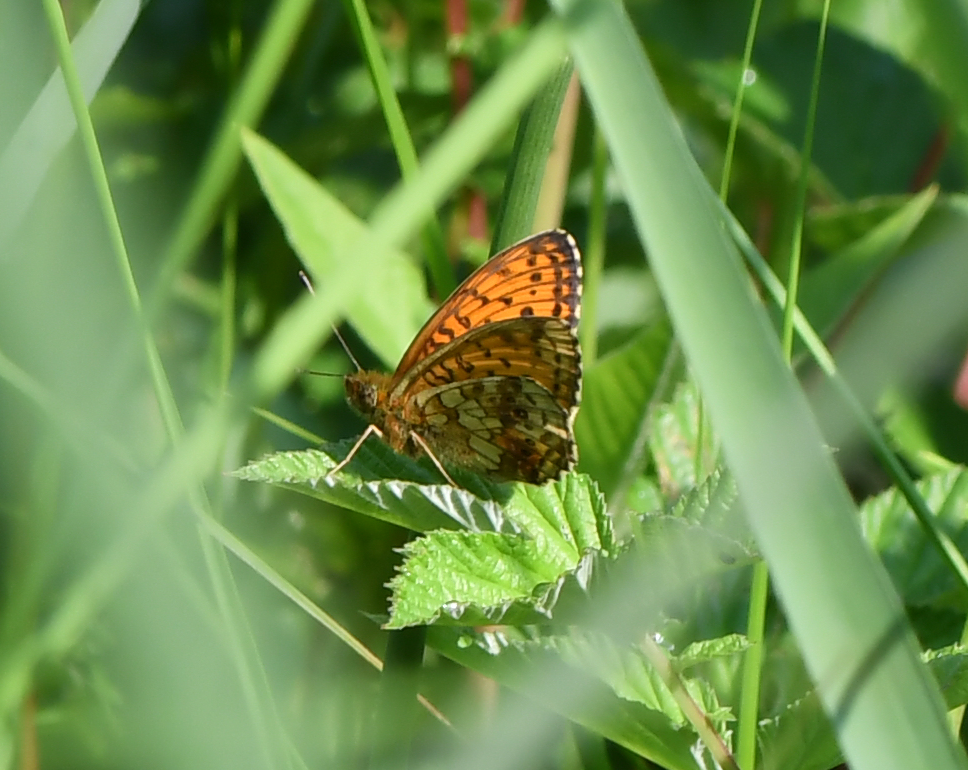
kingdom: Animalia
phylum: Arthropoda
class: Insecta
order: Lepidoptera
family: Nymphalidae
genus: Brenthis
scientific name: Brenthis ino
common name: Lesser marbled fritillary
